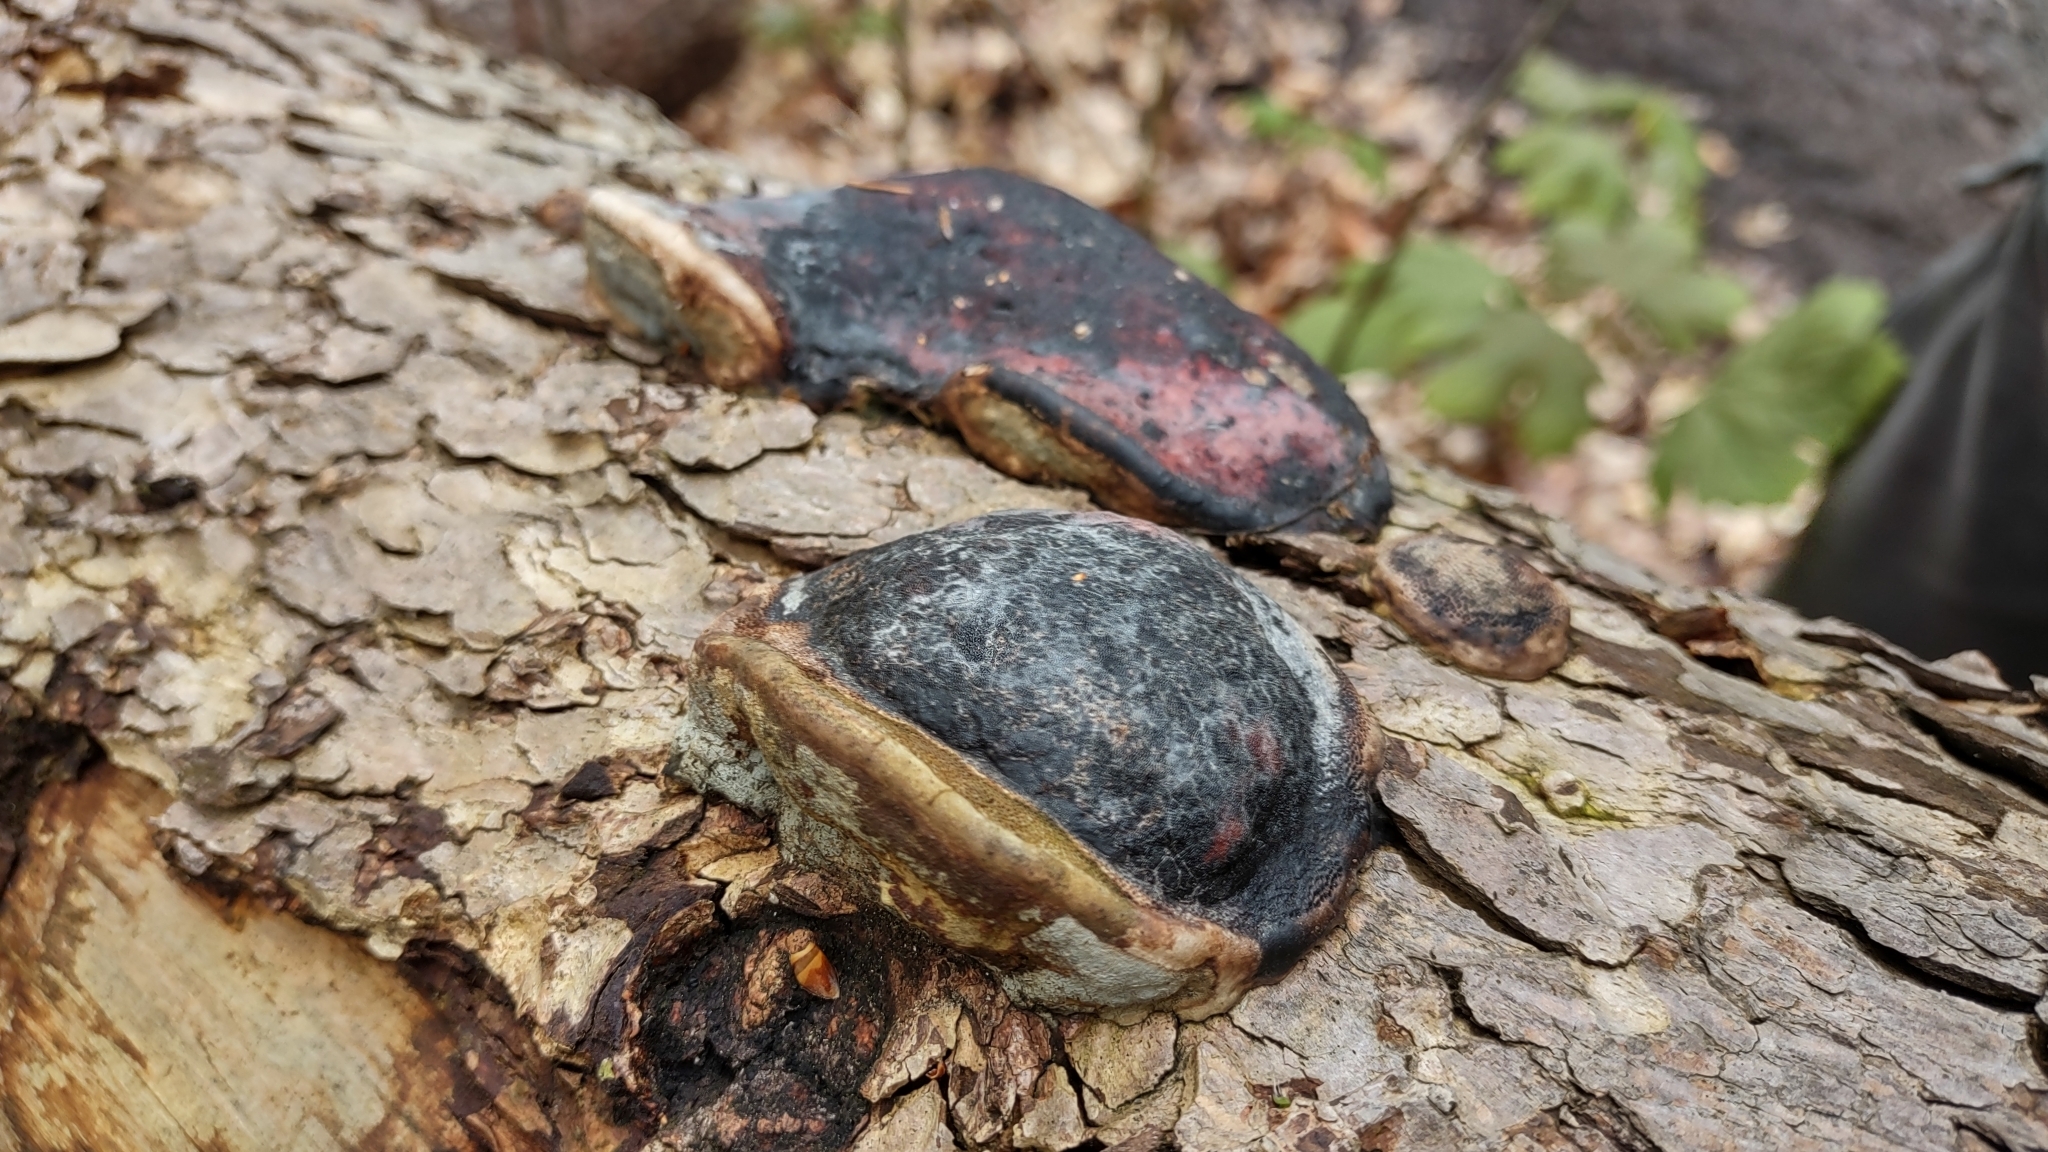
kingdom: Fungi
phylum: Basidiomycota
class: Agaricomycetes
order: Polyporales
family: Fomitopsidaceae
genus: Fomitopsis
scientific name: Fomitopsis pinicola
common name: Red-belted bracket
